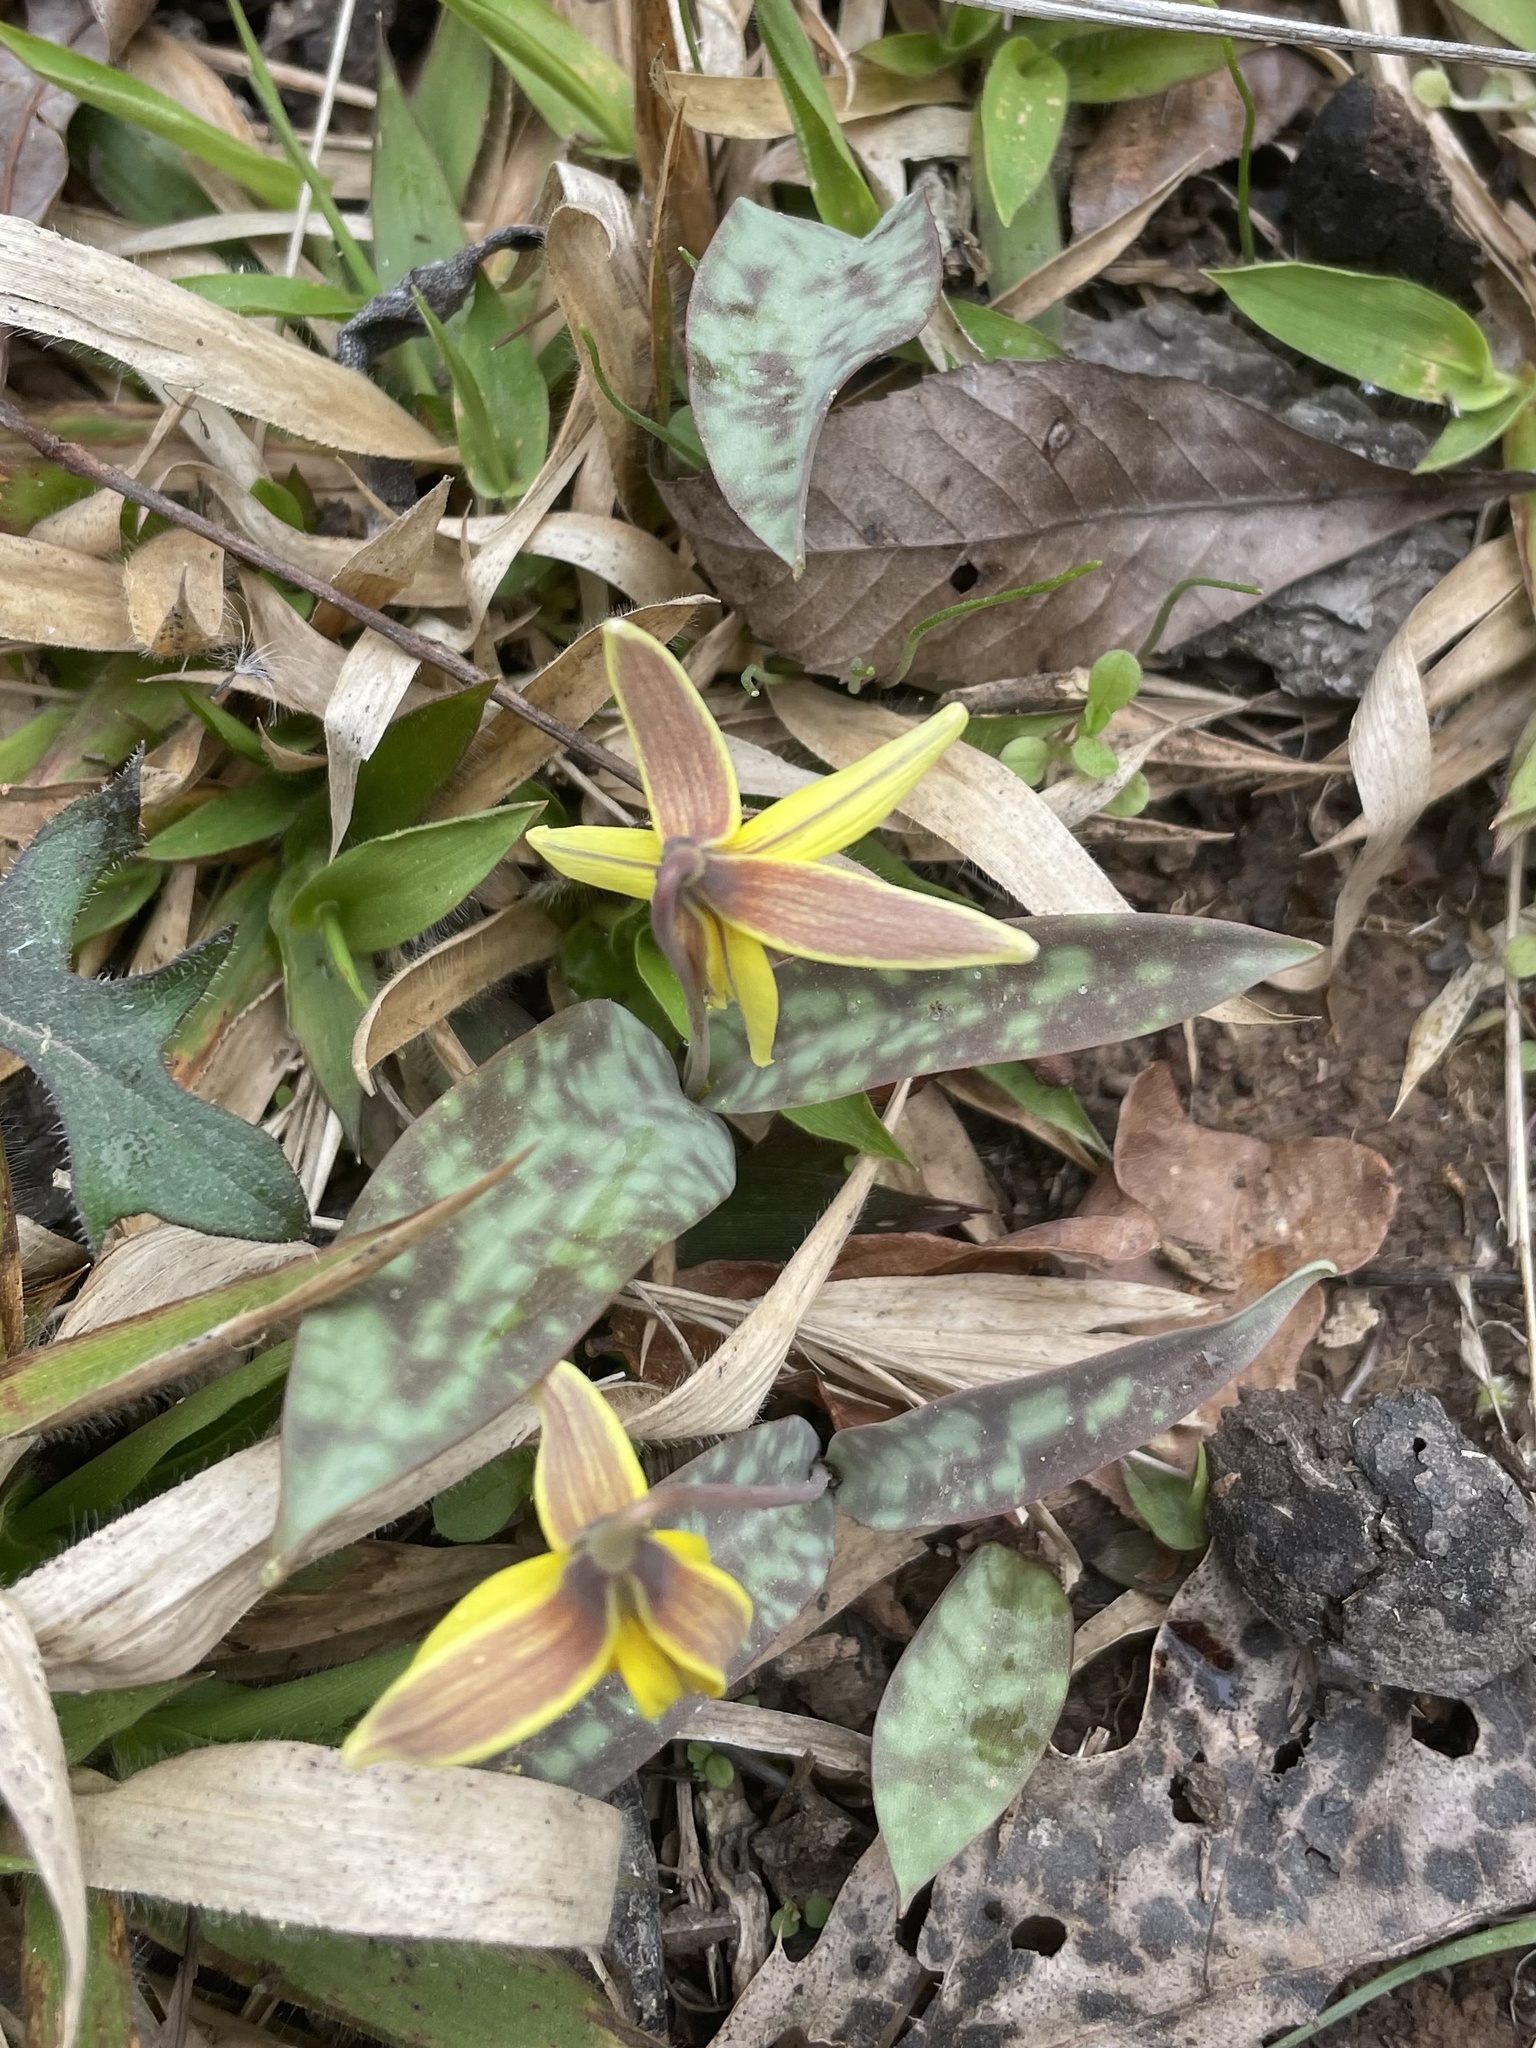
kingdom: Plantae
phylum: Tracheophyta
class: Liliopsida
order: Liliales
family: Liliaceae
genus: Erythronium
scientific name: Erythronium umbilicatum
